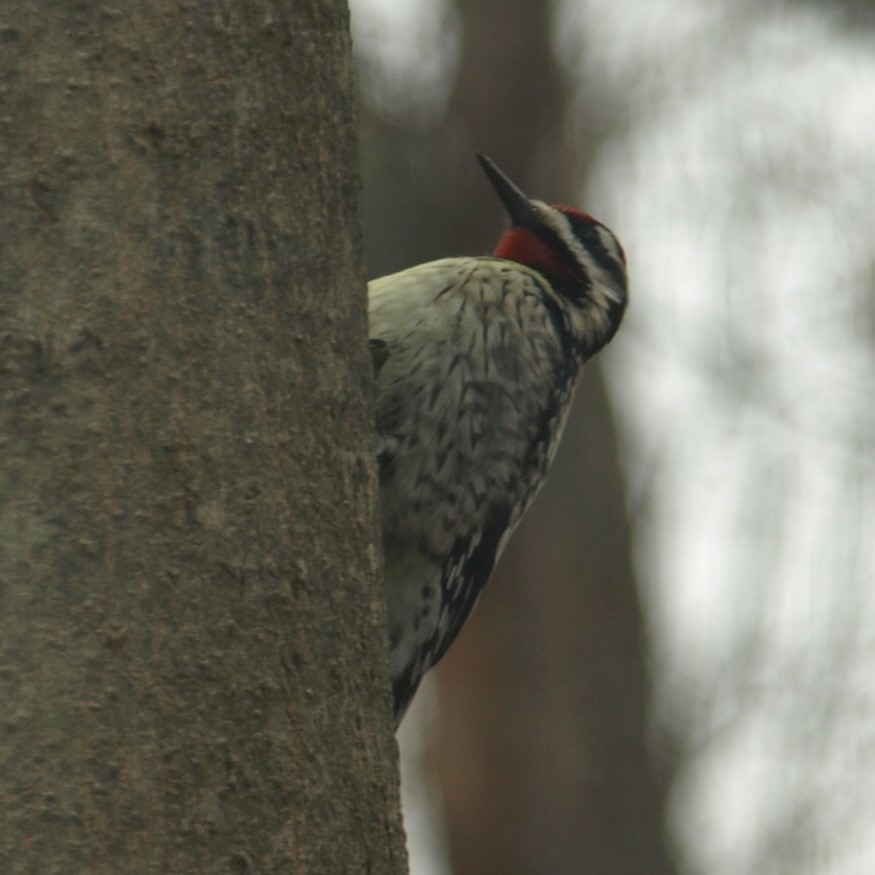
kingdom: Animalia
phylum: Chordata
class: Aves
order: Piciformes
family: Picidae
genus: Sphyrapicus
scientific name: Sphyrapicus varius
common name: Yellow-bellied sapsucker
